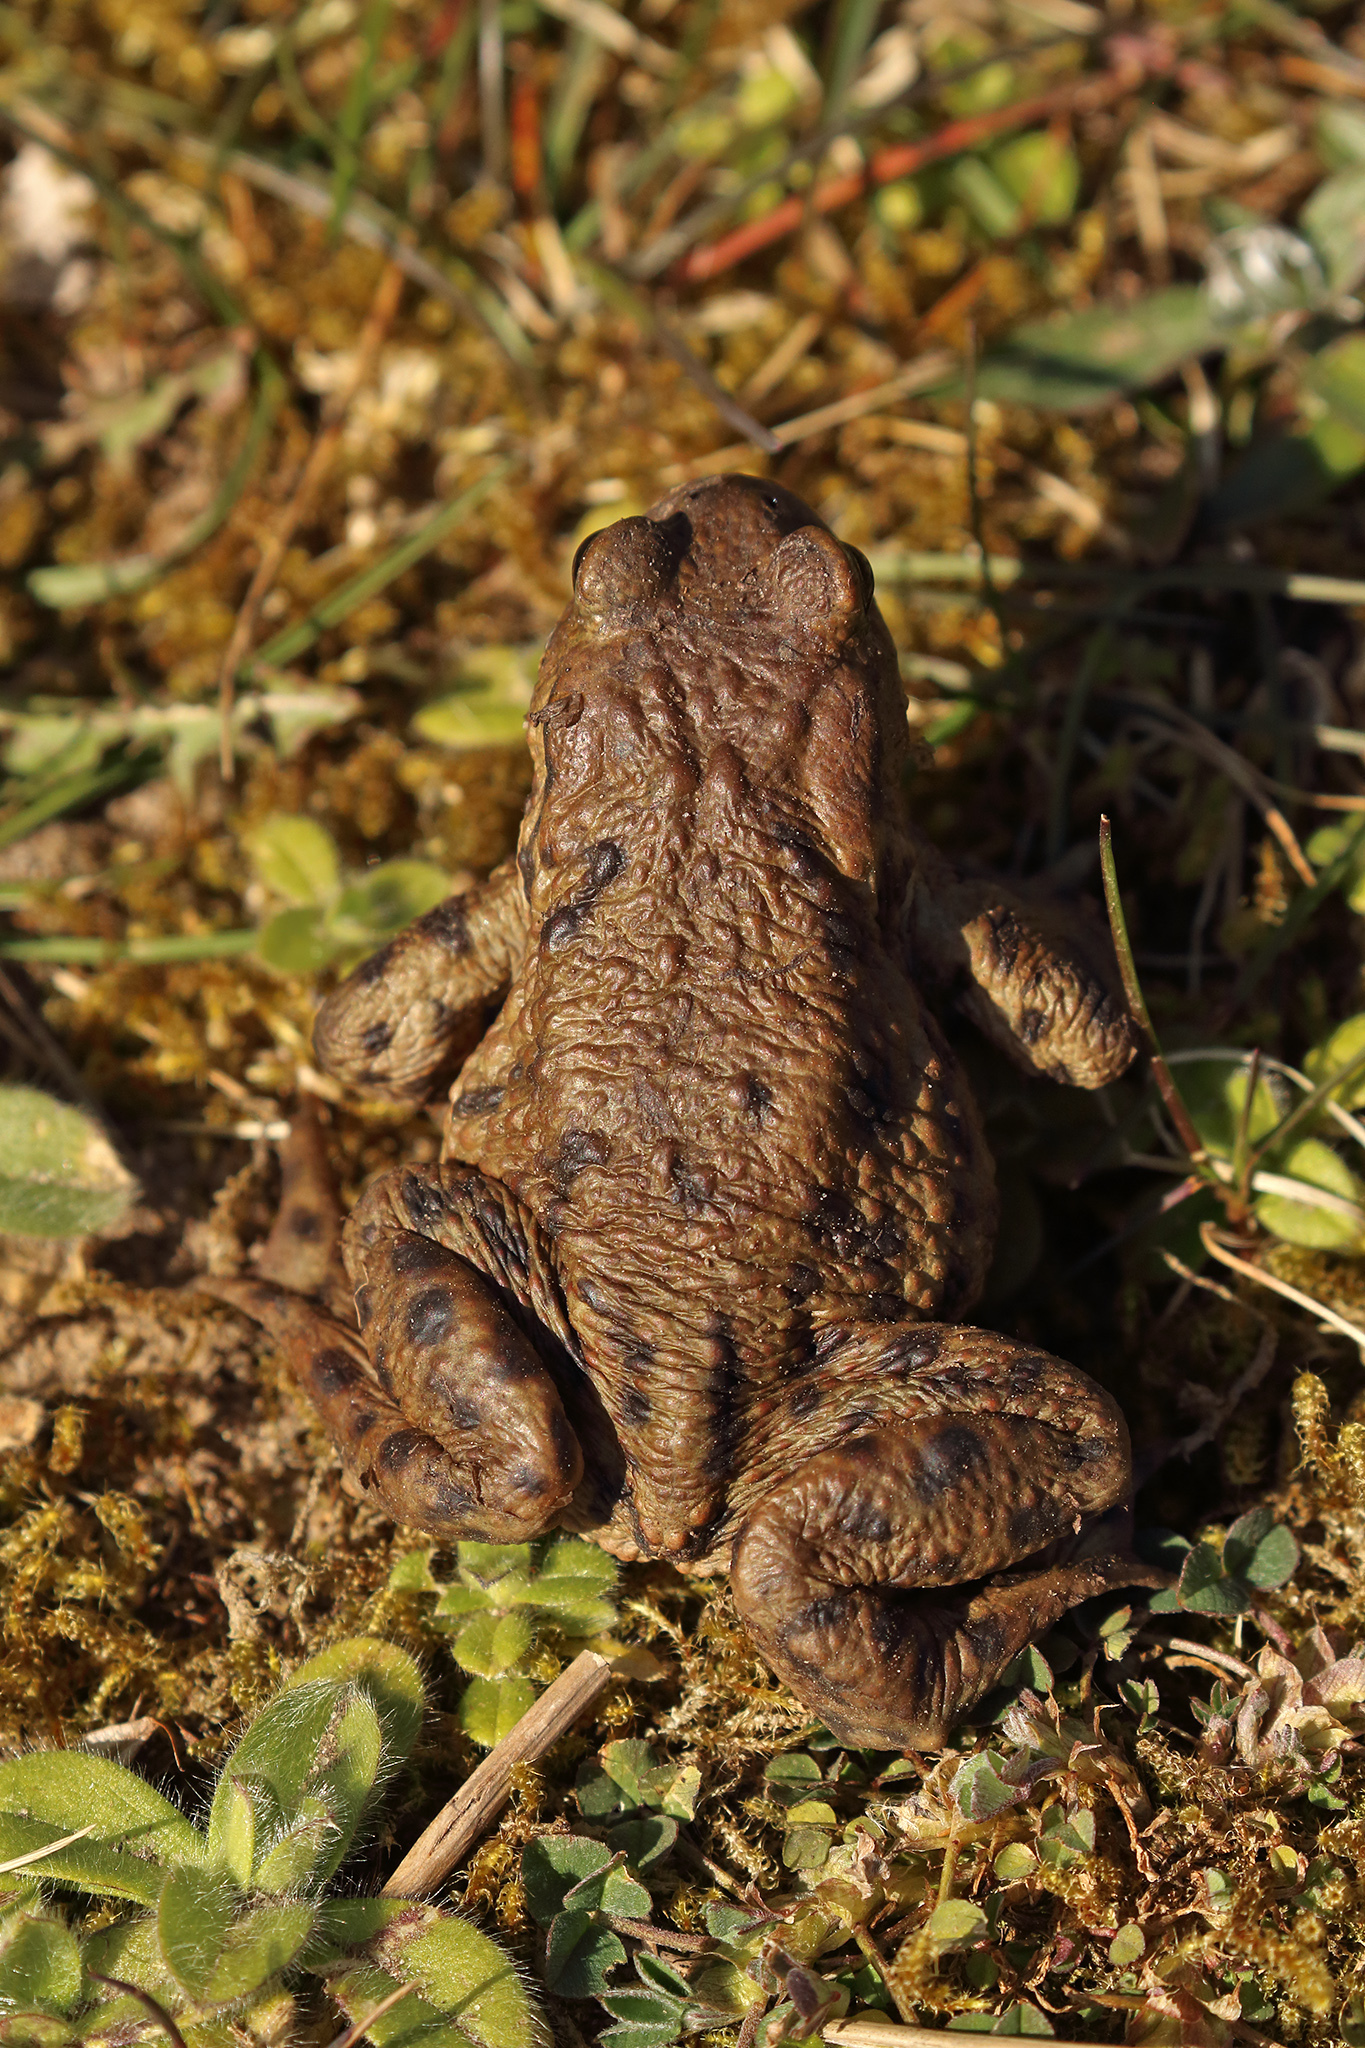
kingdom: Animalia
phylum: Chordata
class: Amphibia
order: Anura
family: Bufonidae
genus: Bufo
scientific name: Bufo bufo
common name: Common toad
